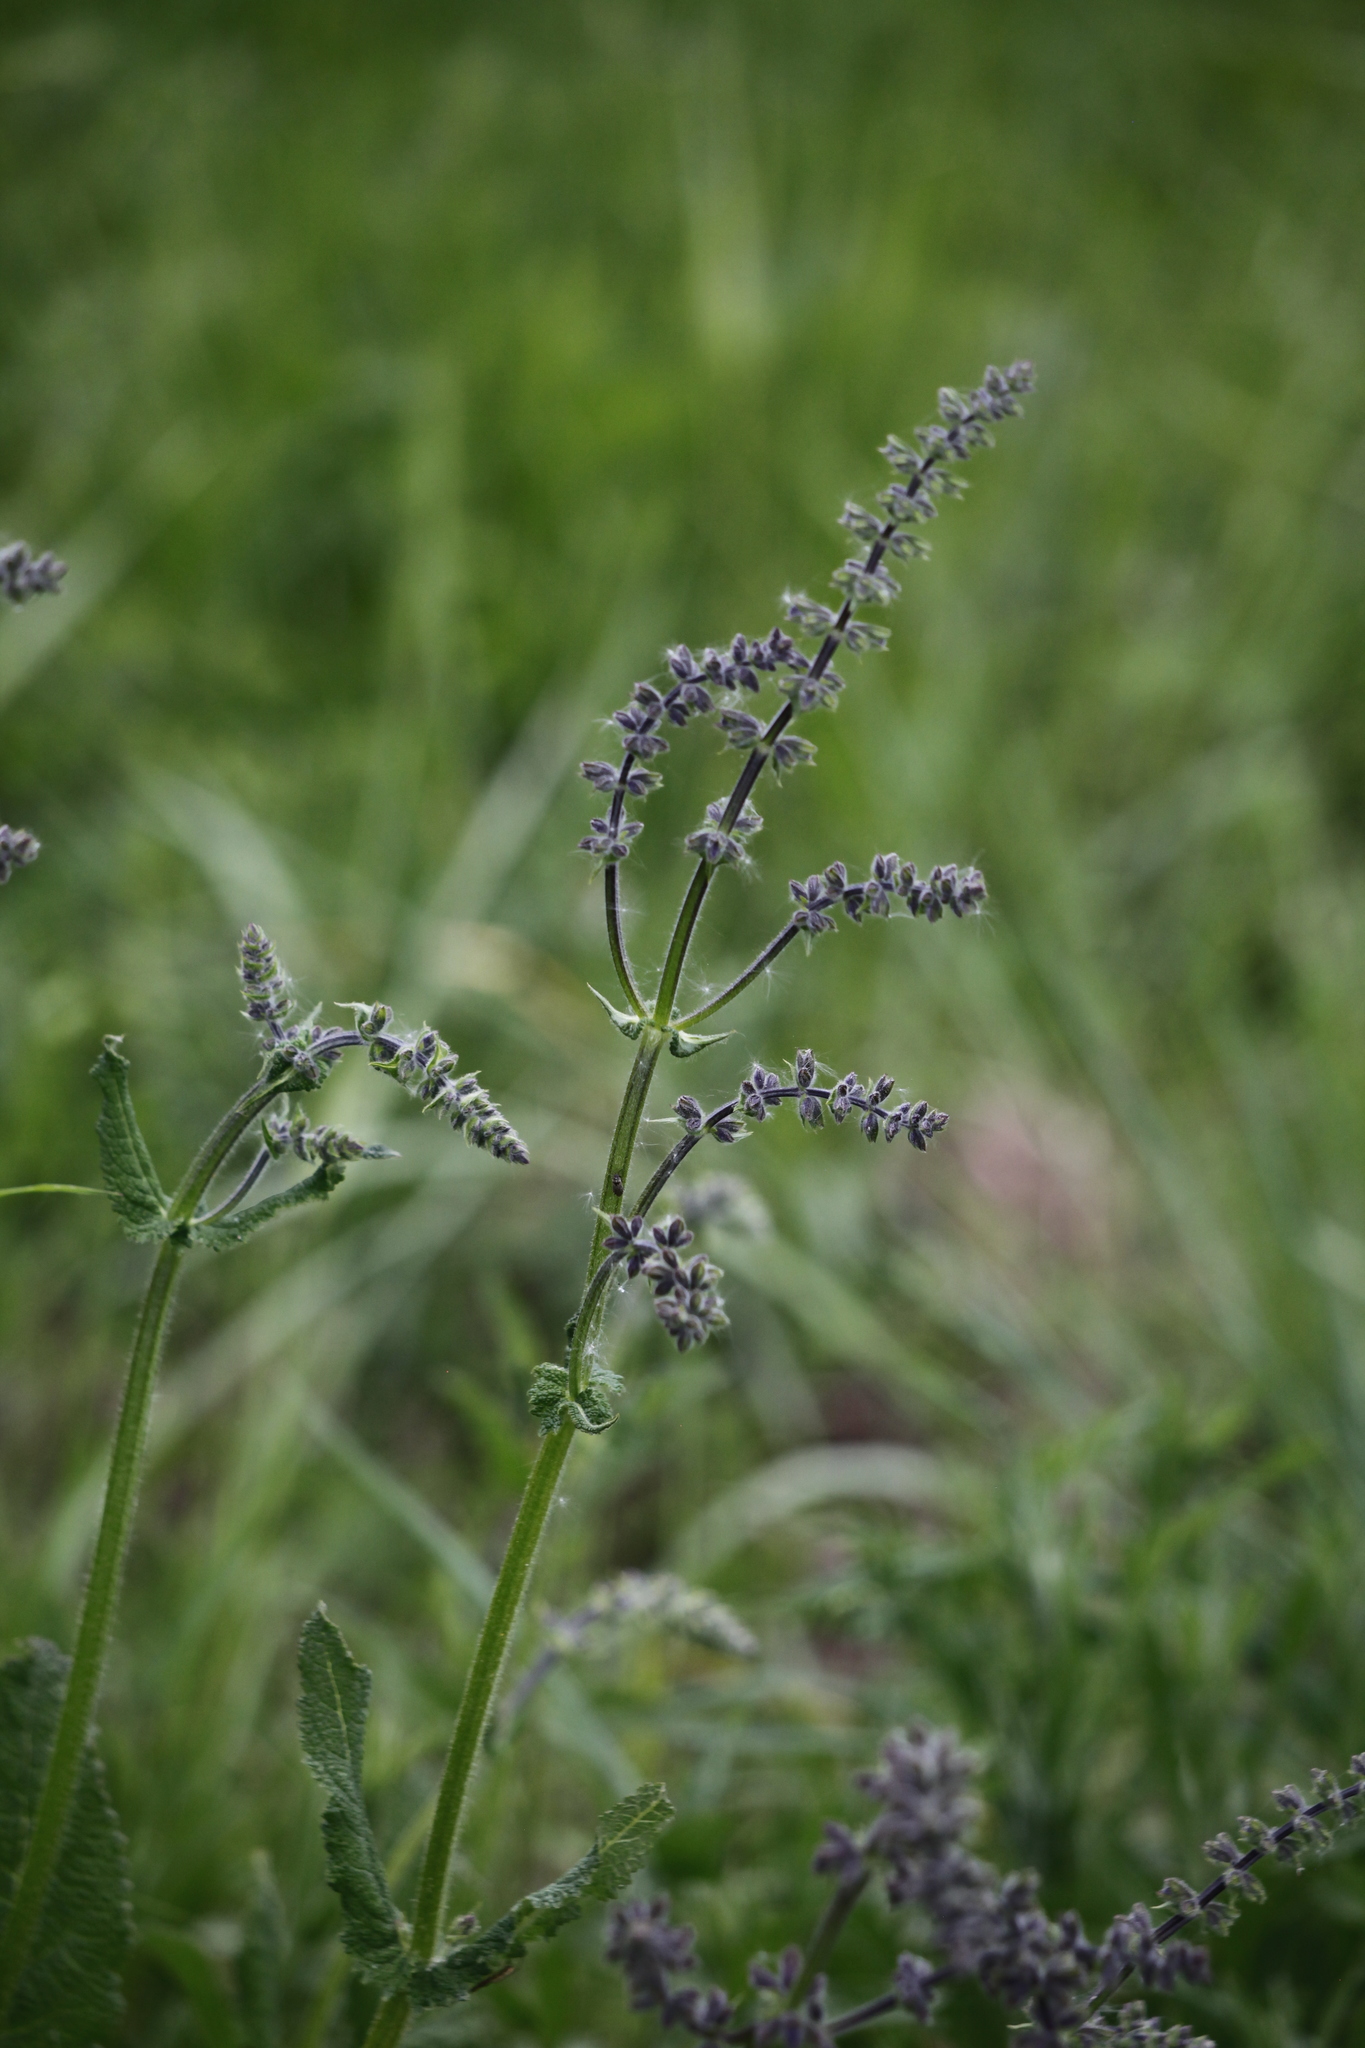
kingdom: Plantae
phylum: Tracheophyta
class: Magnoliopsida
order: Lamiales
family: Lamiaceae
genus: Salvia
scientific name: Salvia pratensis
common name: Meadow sage
